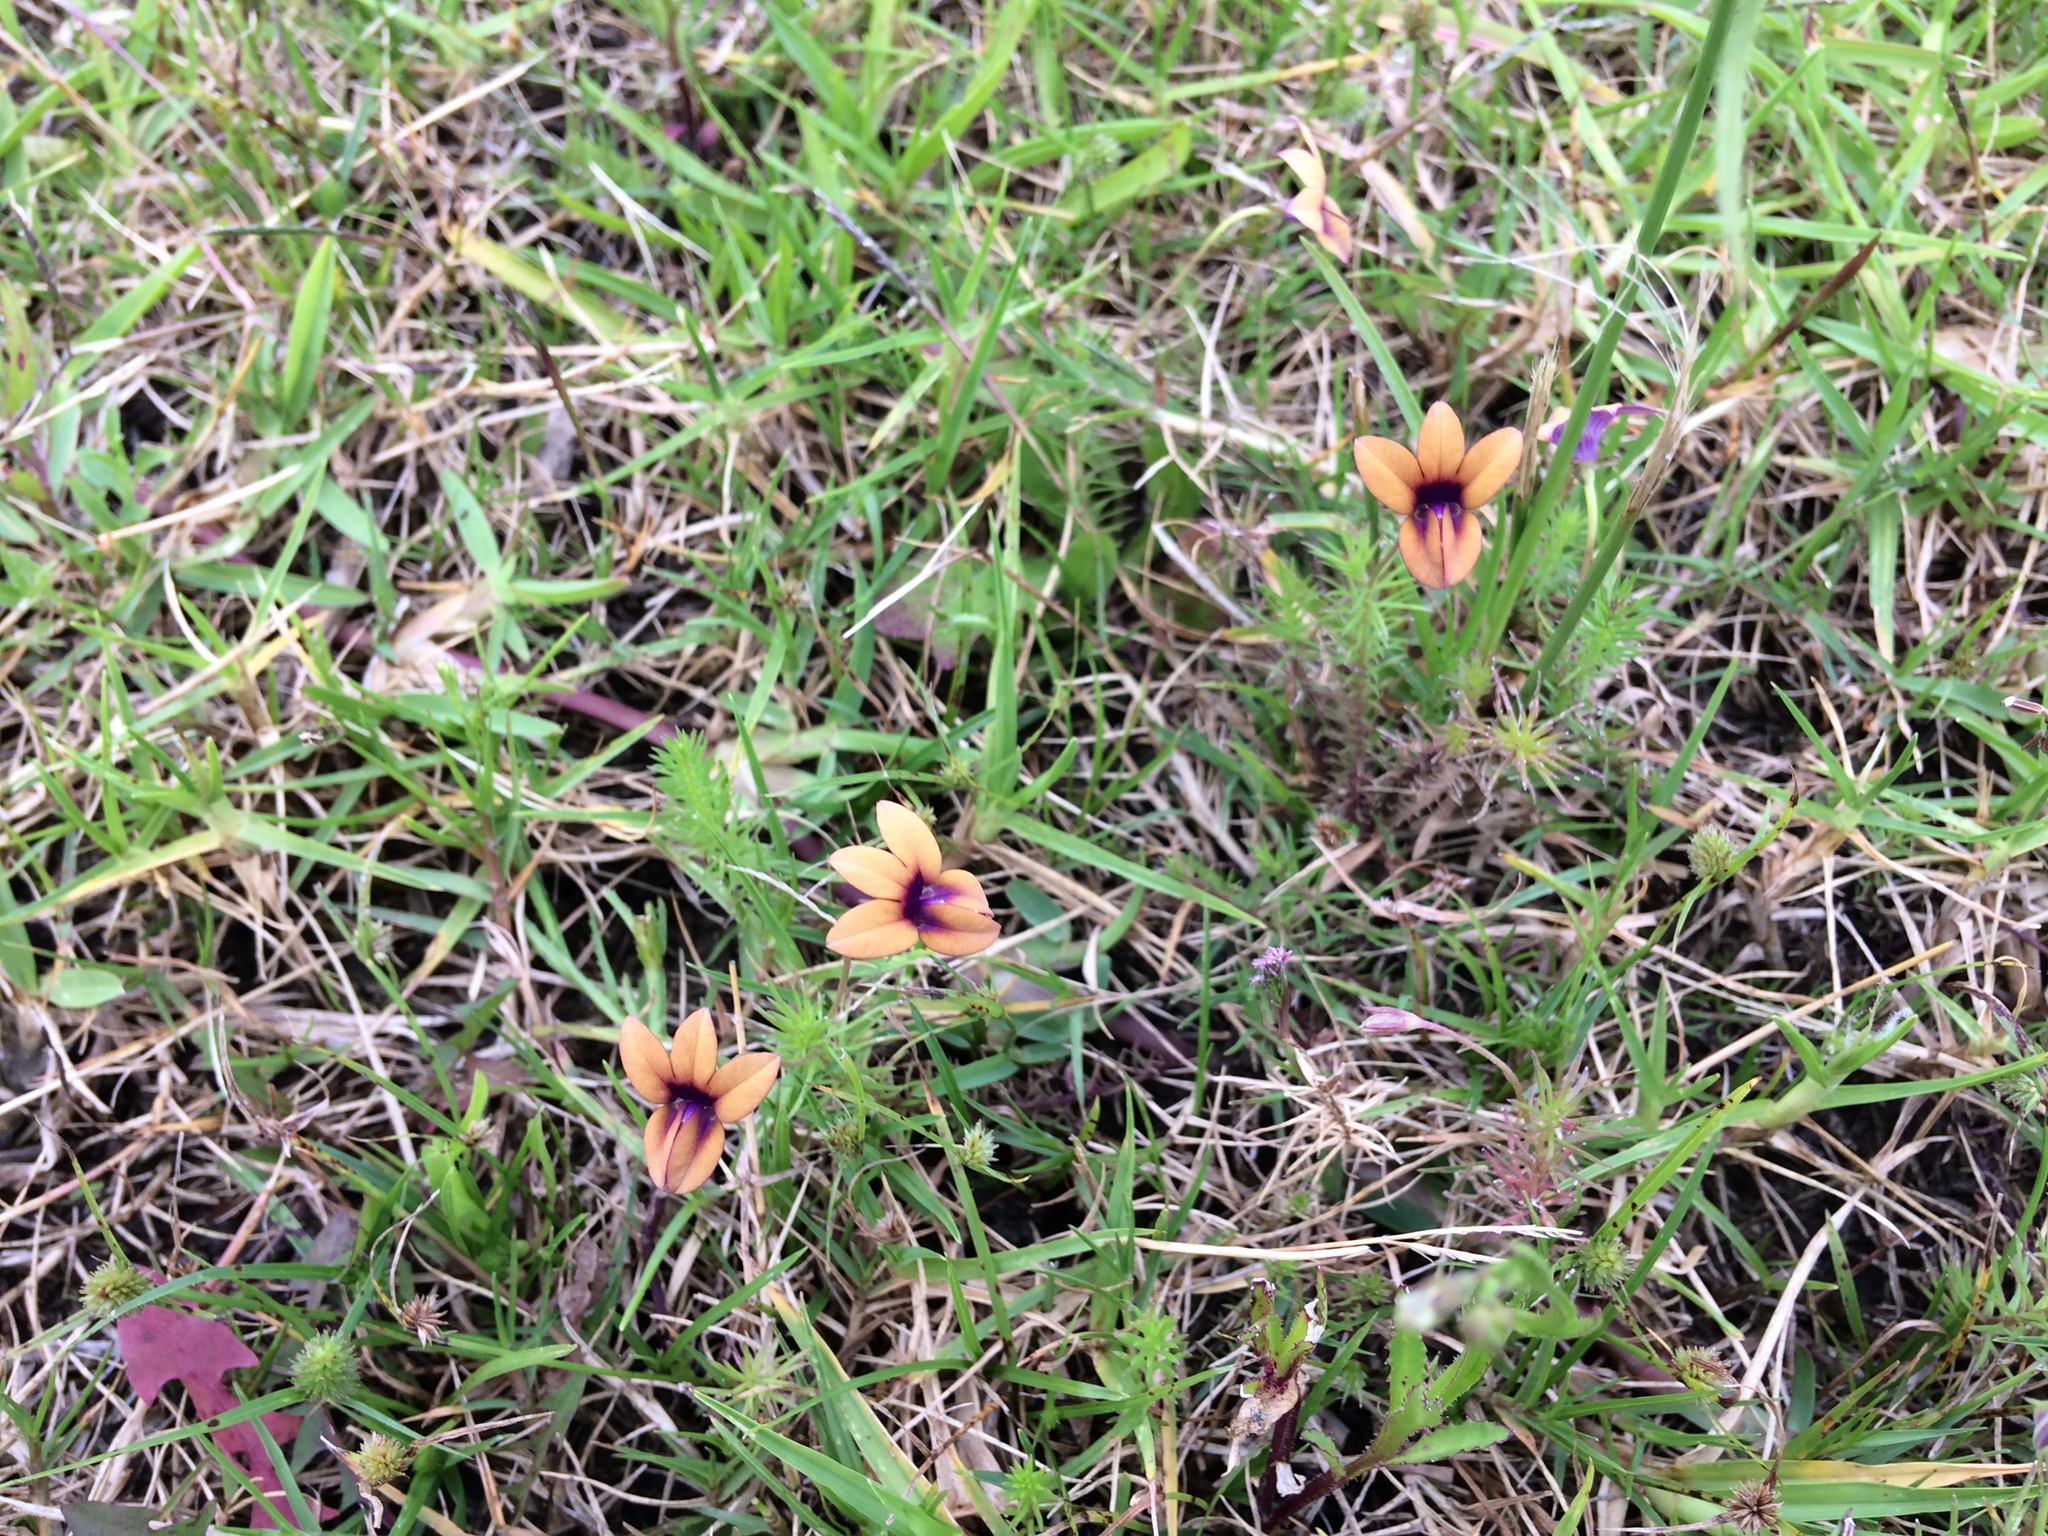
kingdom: Plantae
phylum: Tracheophyta
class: Magnoliopsida
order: Asterales
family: Campanulaceae
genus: Monopsis
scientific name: Monopsis unidentata
